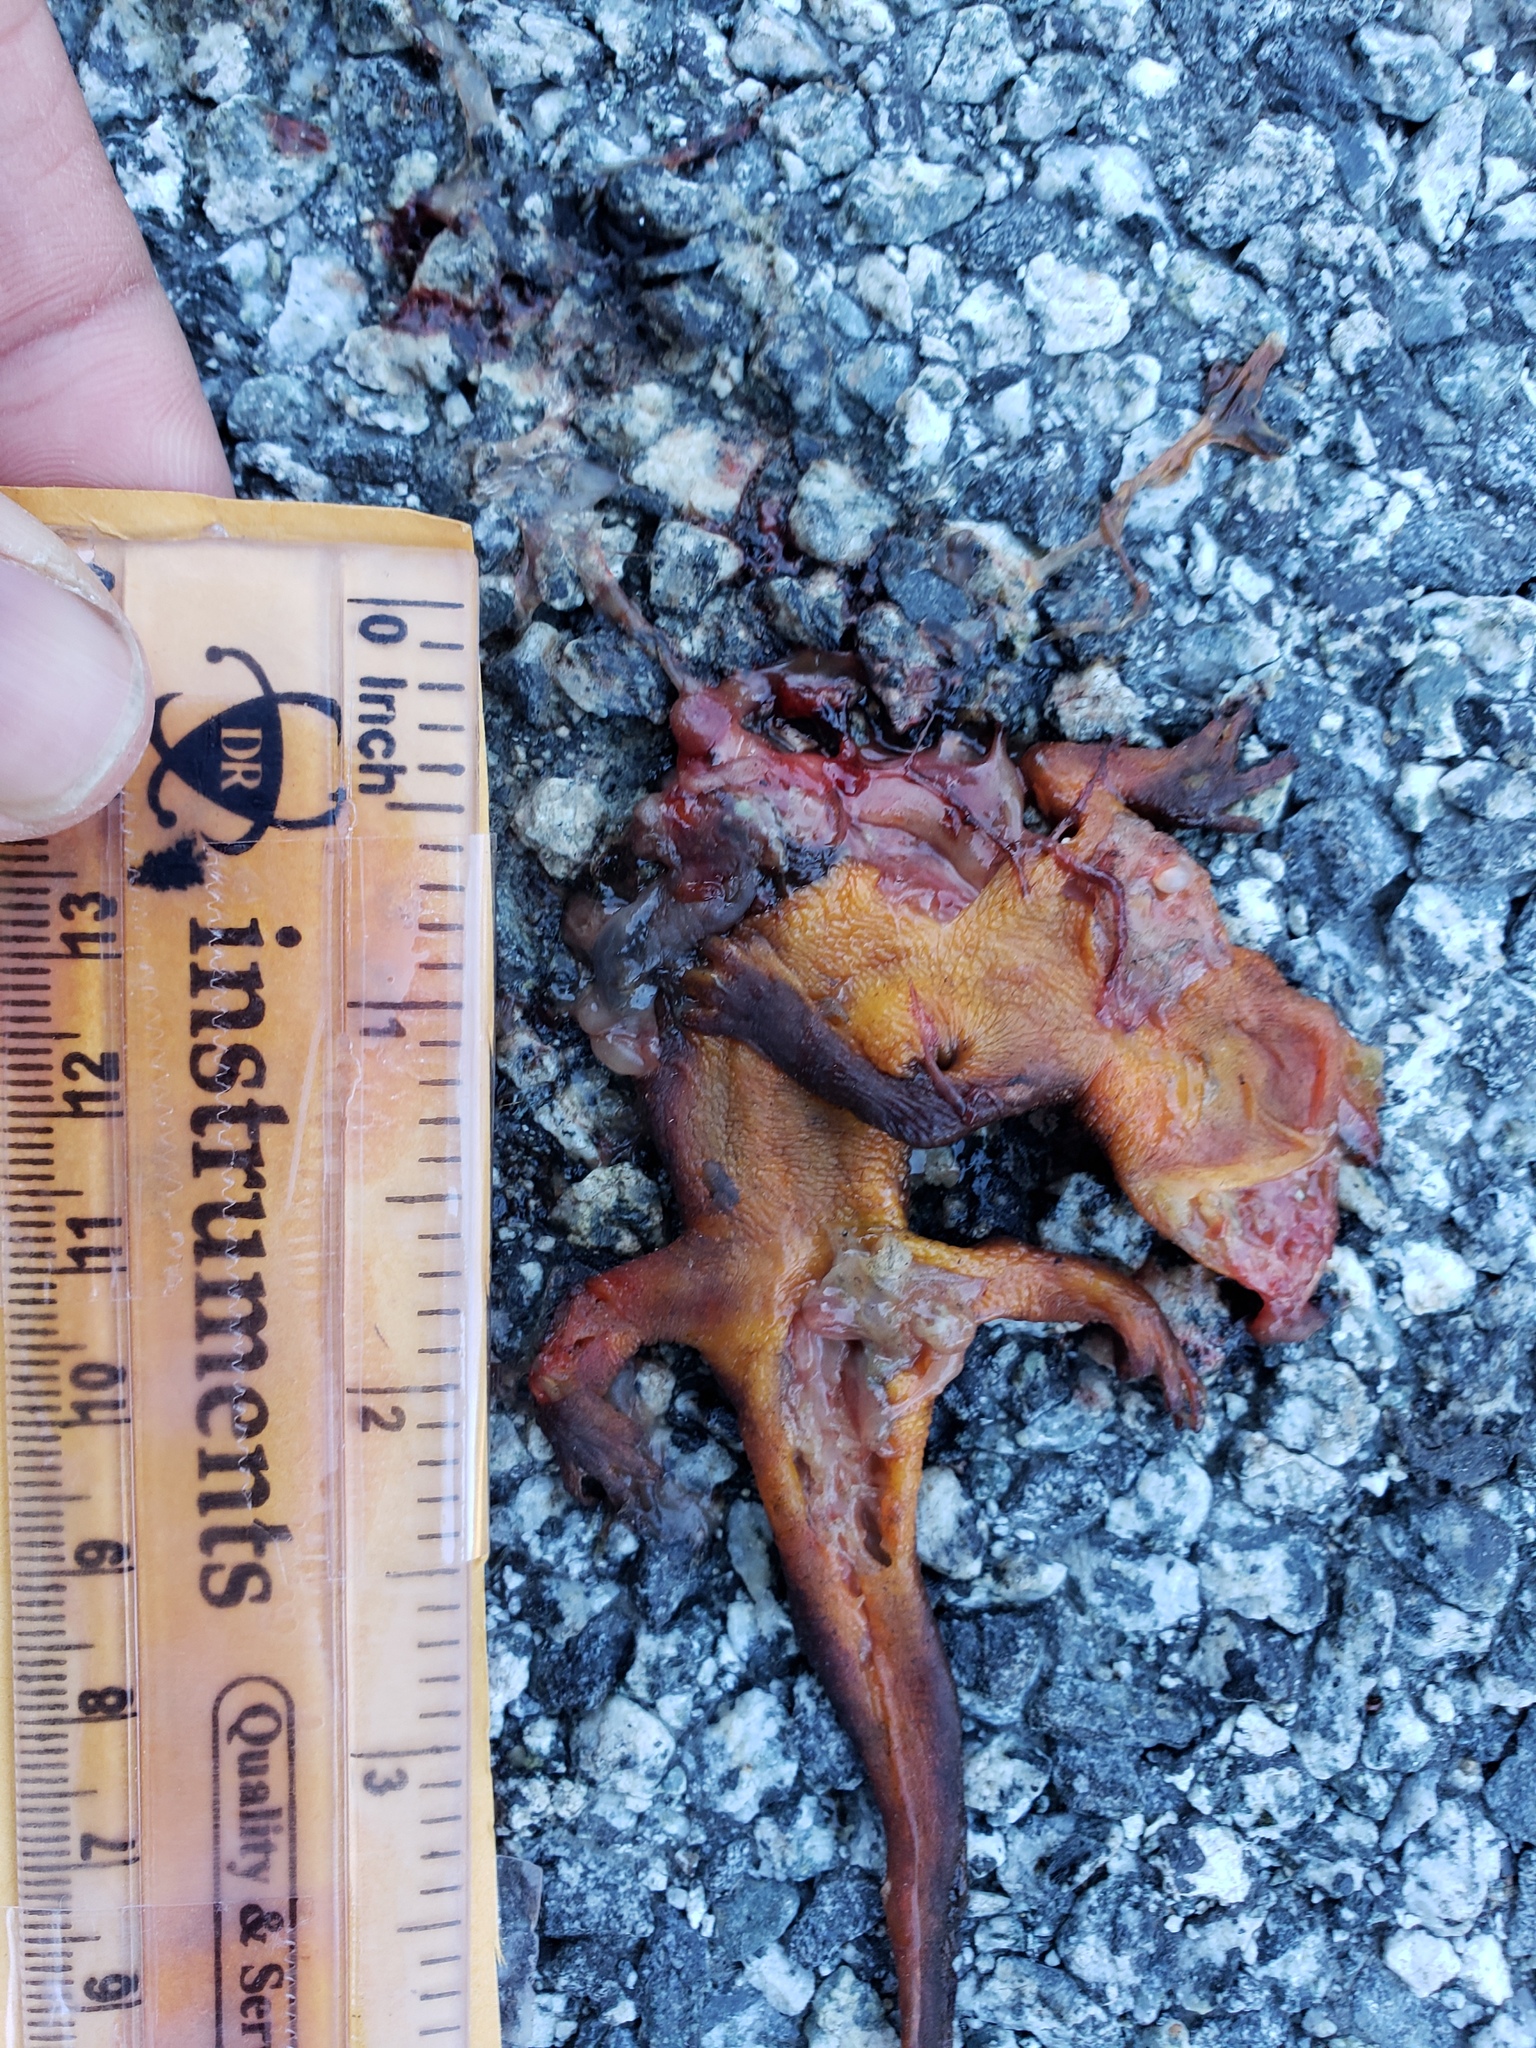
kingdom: Animalia
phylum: Chordata
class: Amphibia
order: Caudata
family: Salamandridae
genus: Taricha
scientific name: Taricha
